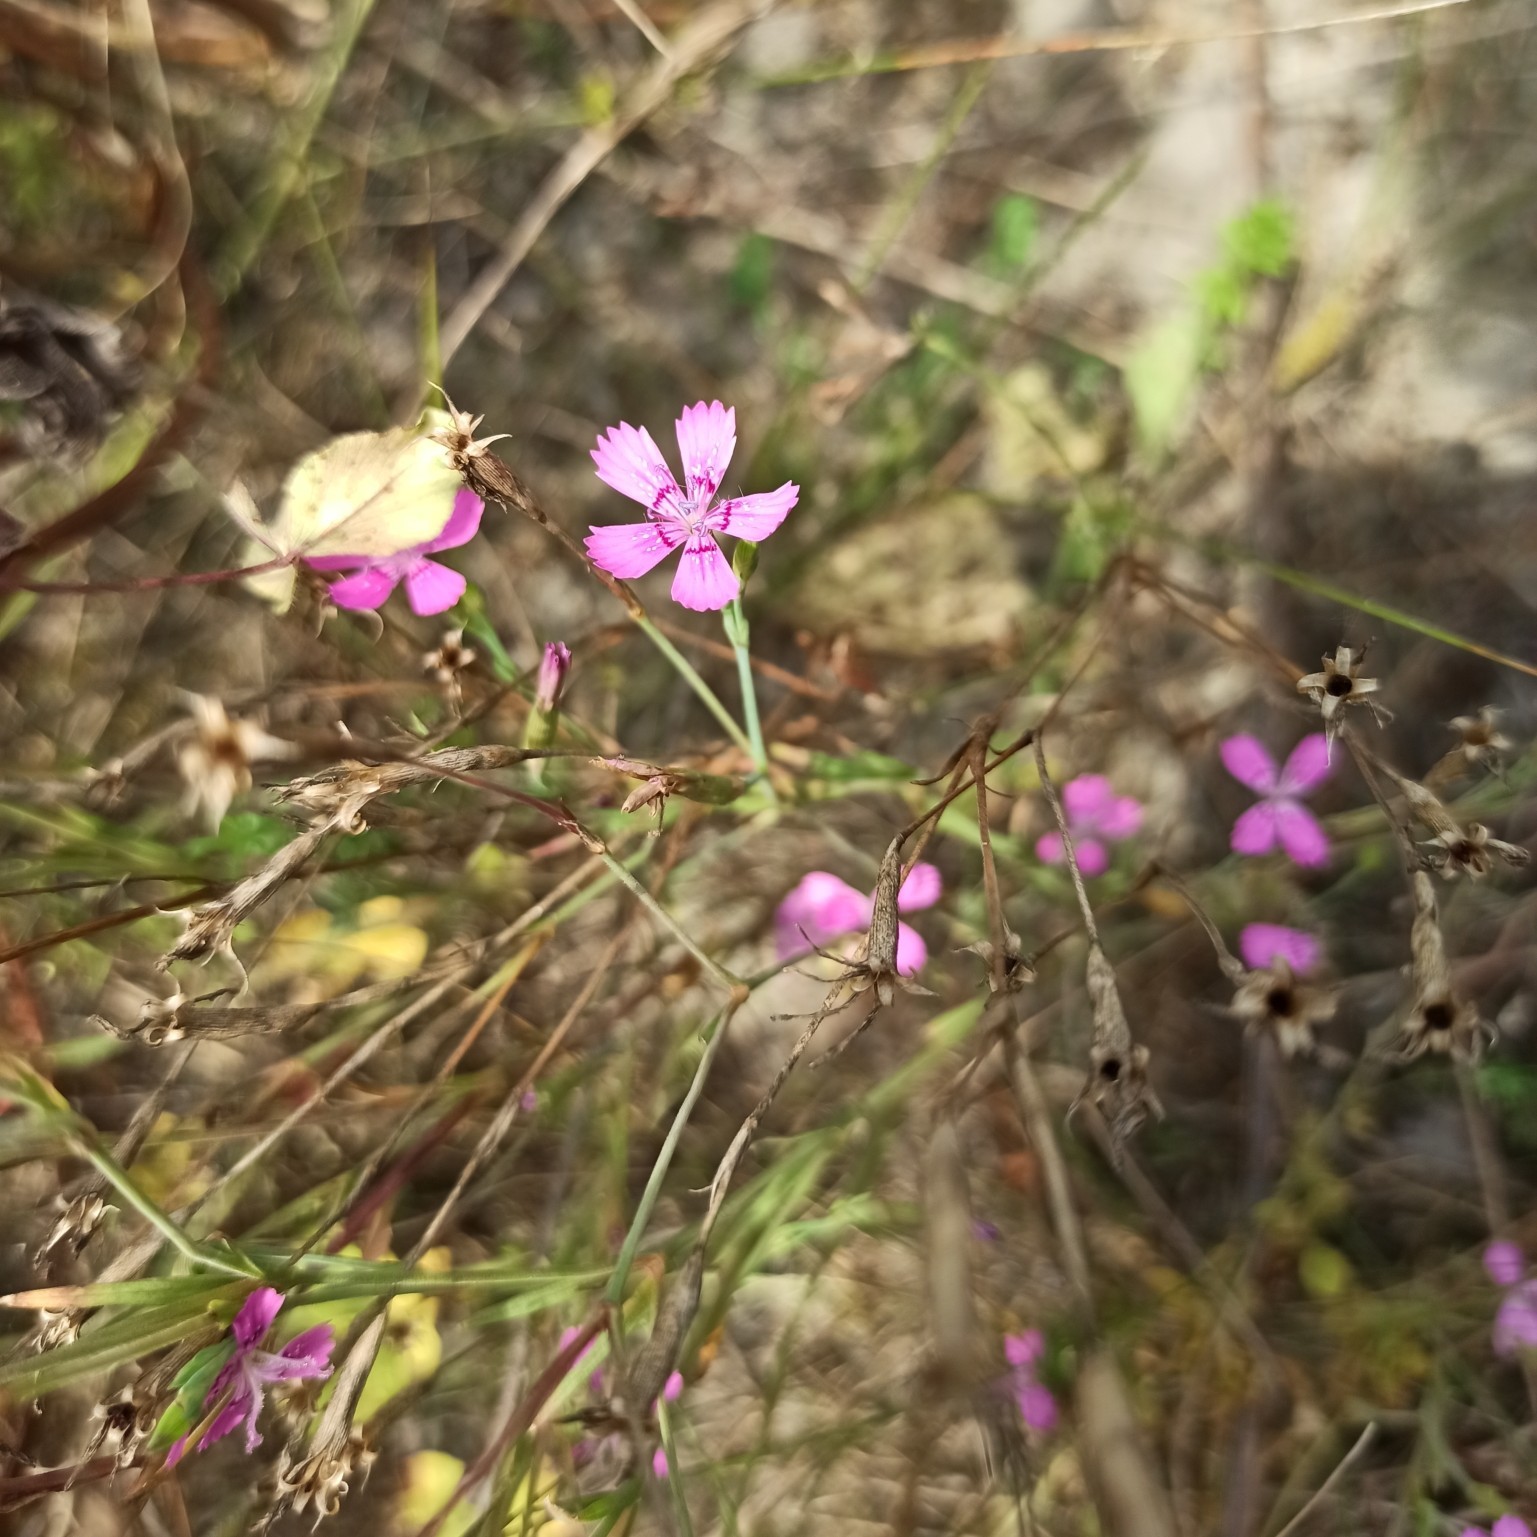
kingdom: Plantae
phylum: Tracheophyta
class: Magnoliopsida
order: Caryophyllales
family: Caryophyllaceae
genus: Dianthus
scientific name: Dianthus deltoides
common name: Maiden pink
